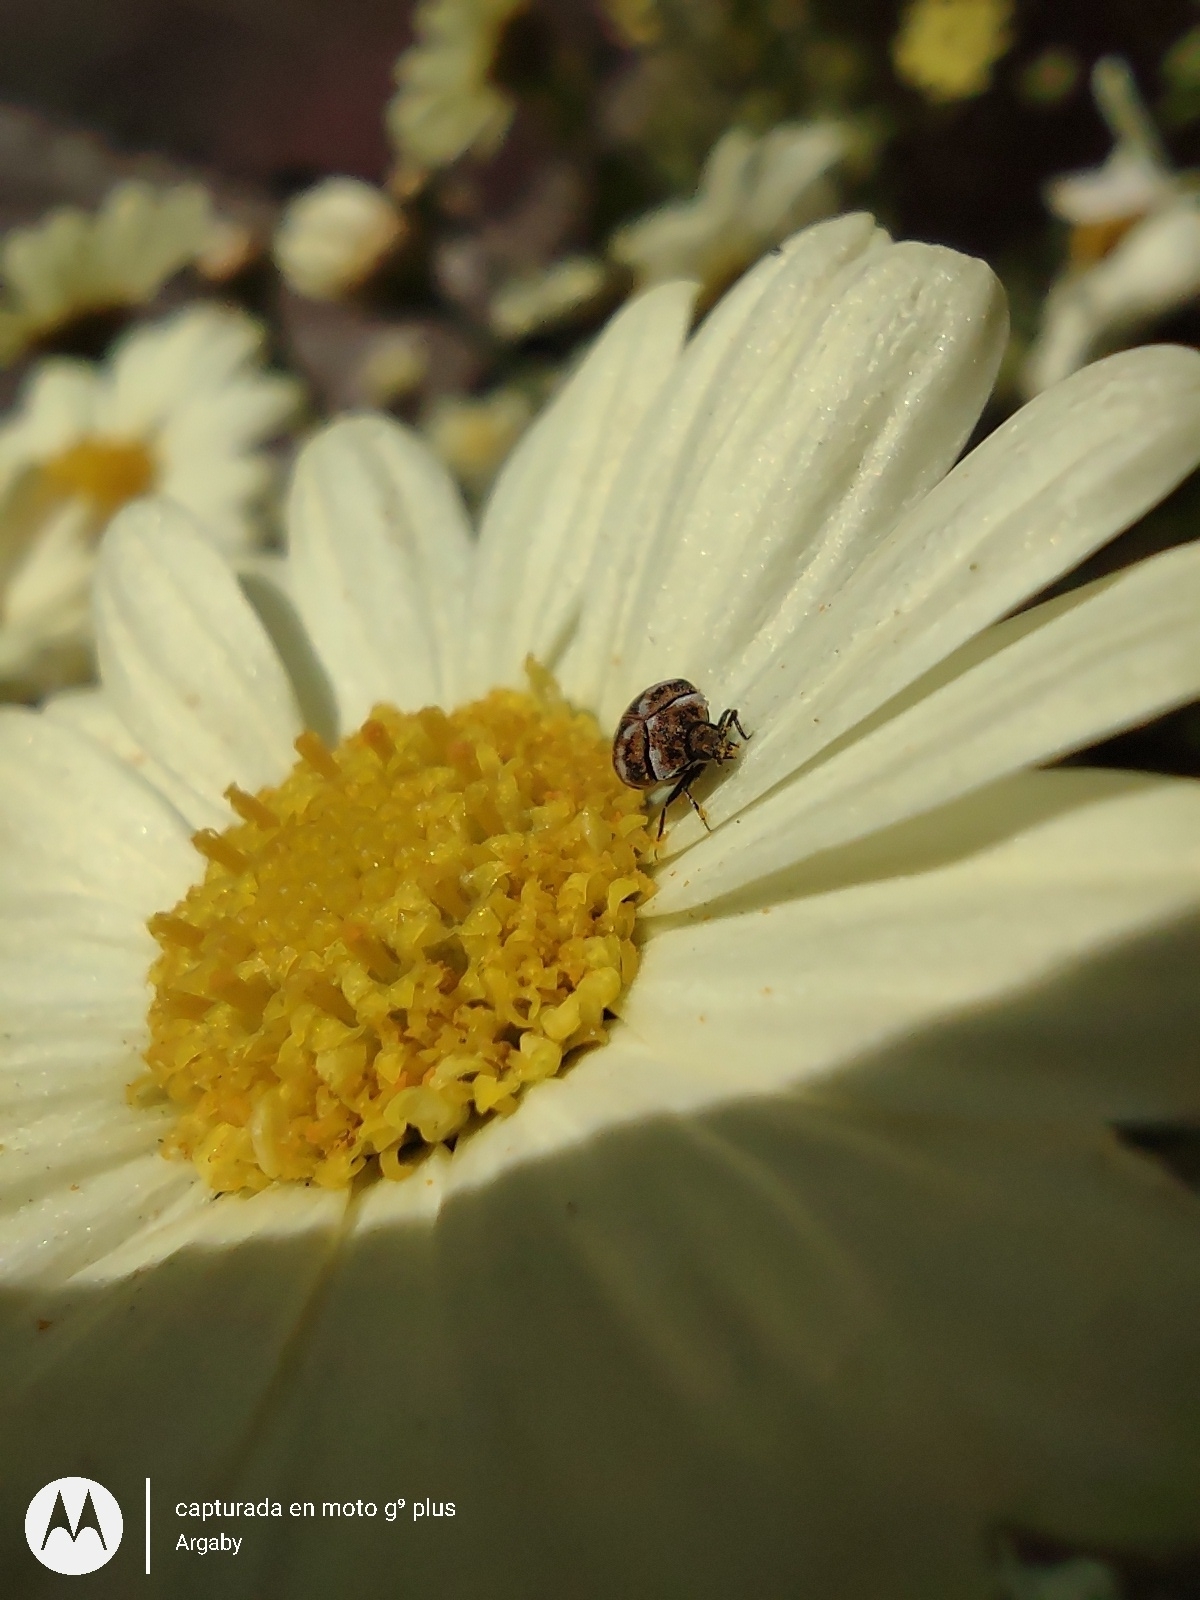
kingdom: Animalia
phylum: Arthropoda
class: Insecta
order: Coleoptera
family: Dermestidae
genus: Anthrenus
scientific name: Anthrenus verbasci
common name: Varied carpet beetle
